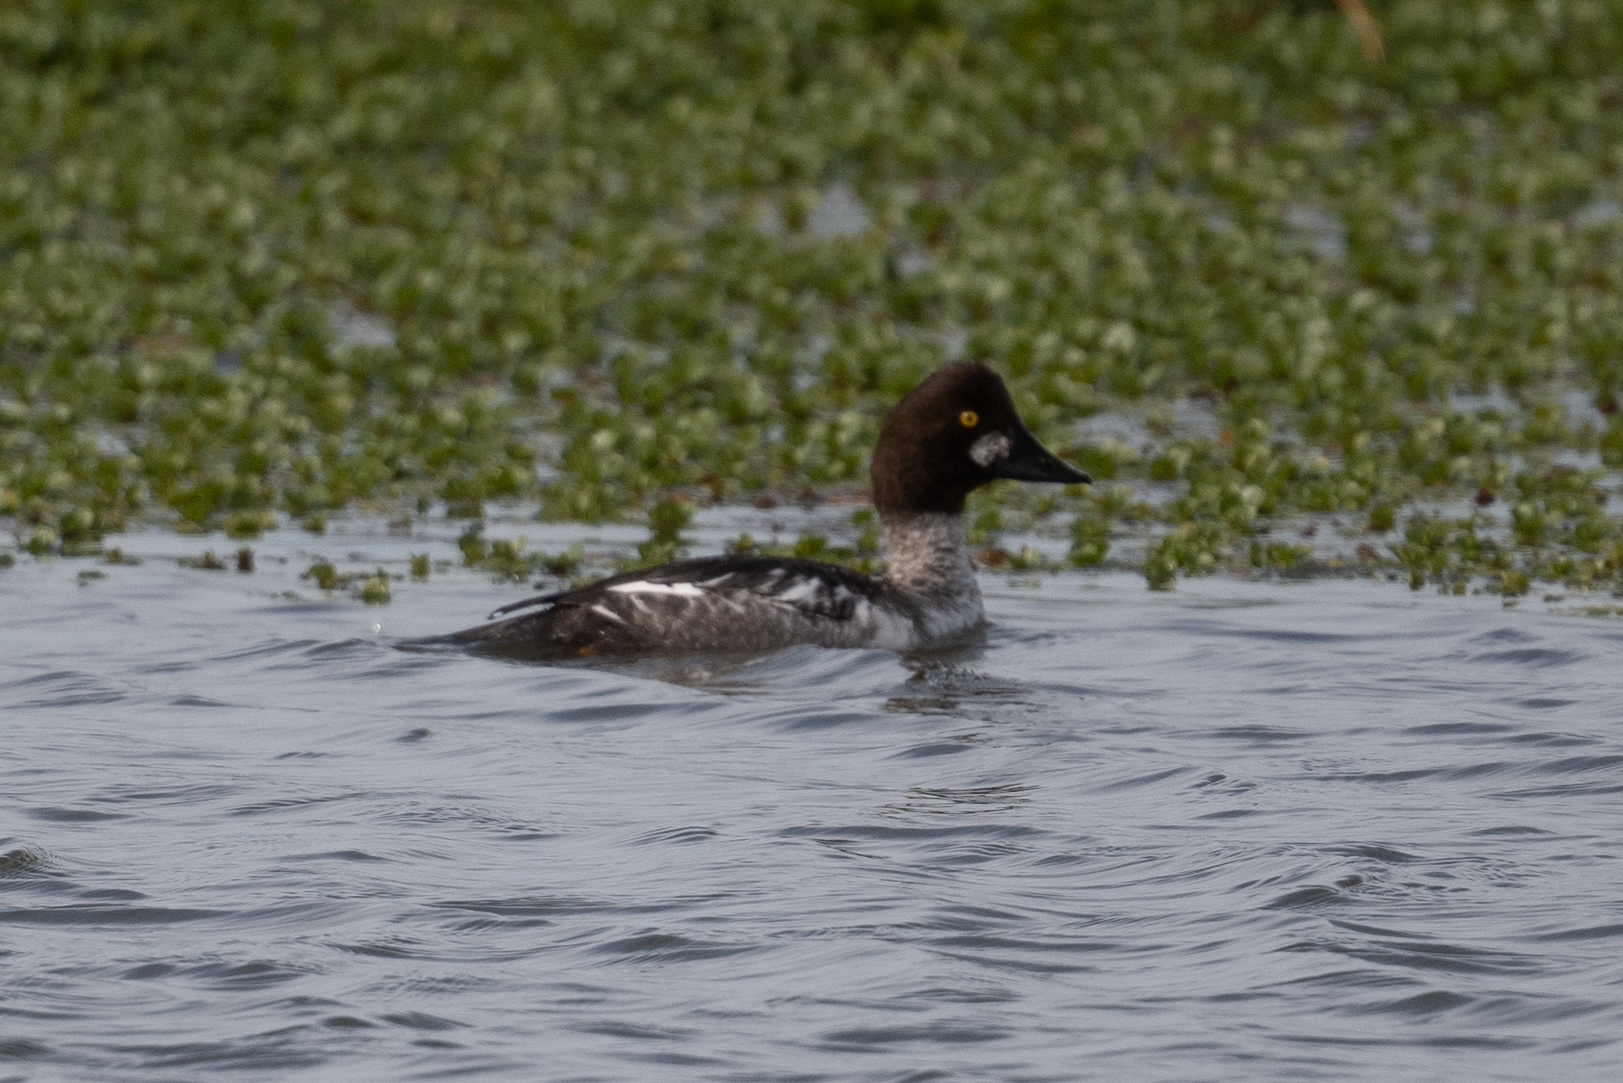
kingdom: Animalia
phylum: Chordata
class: Aves
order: Anseriformes
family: Anatidae
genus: Bucephala
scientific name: Bucephala clangula
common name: Common goldeneye
